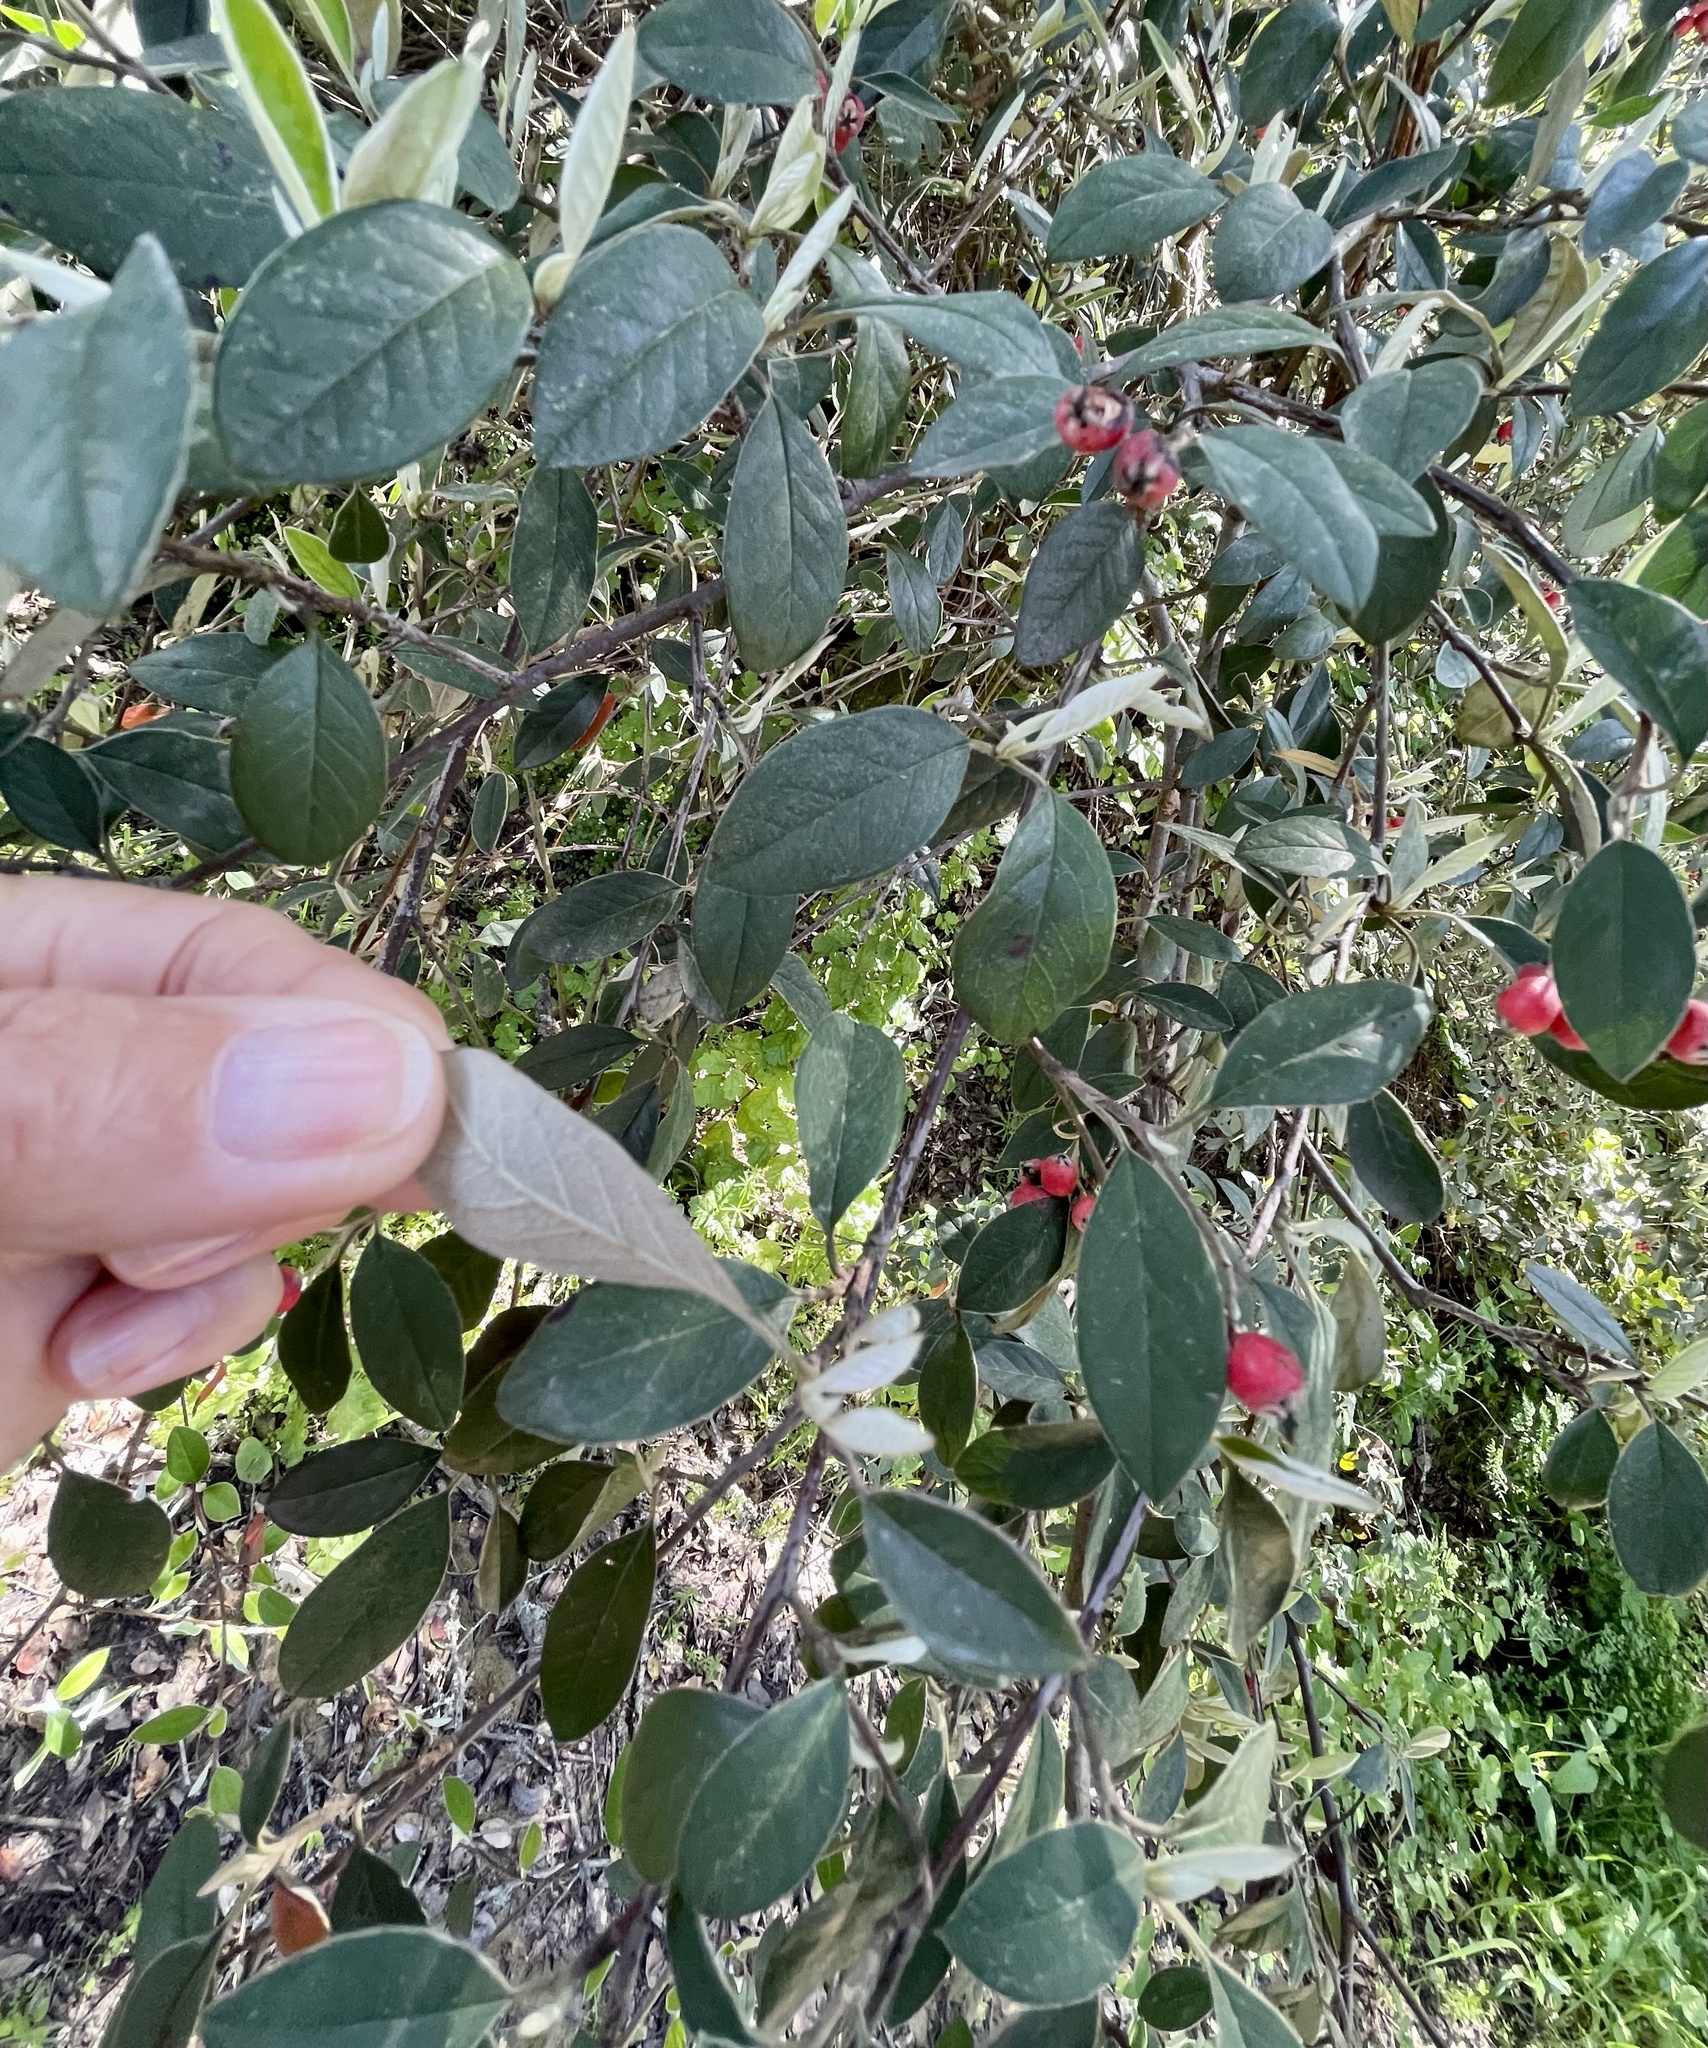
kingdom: Plantae
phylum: Tracheophyta
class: Magnoliopsida
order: Rosales
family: Rosaceae
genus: Cotoneaster
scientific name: Cotoneaster pannosus
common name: Silverleaf cotoneaster
